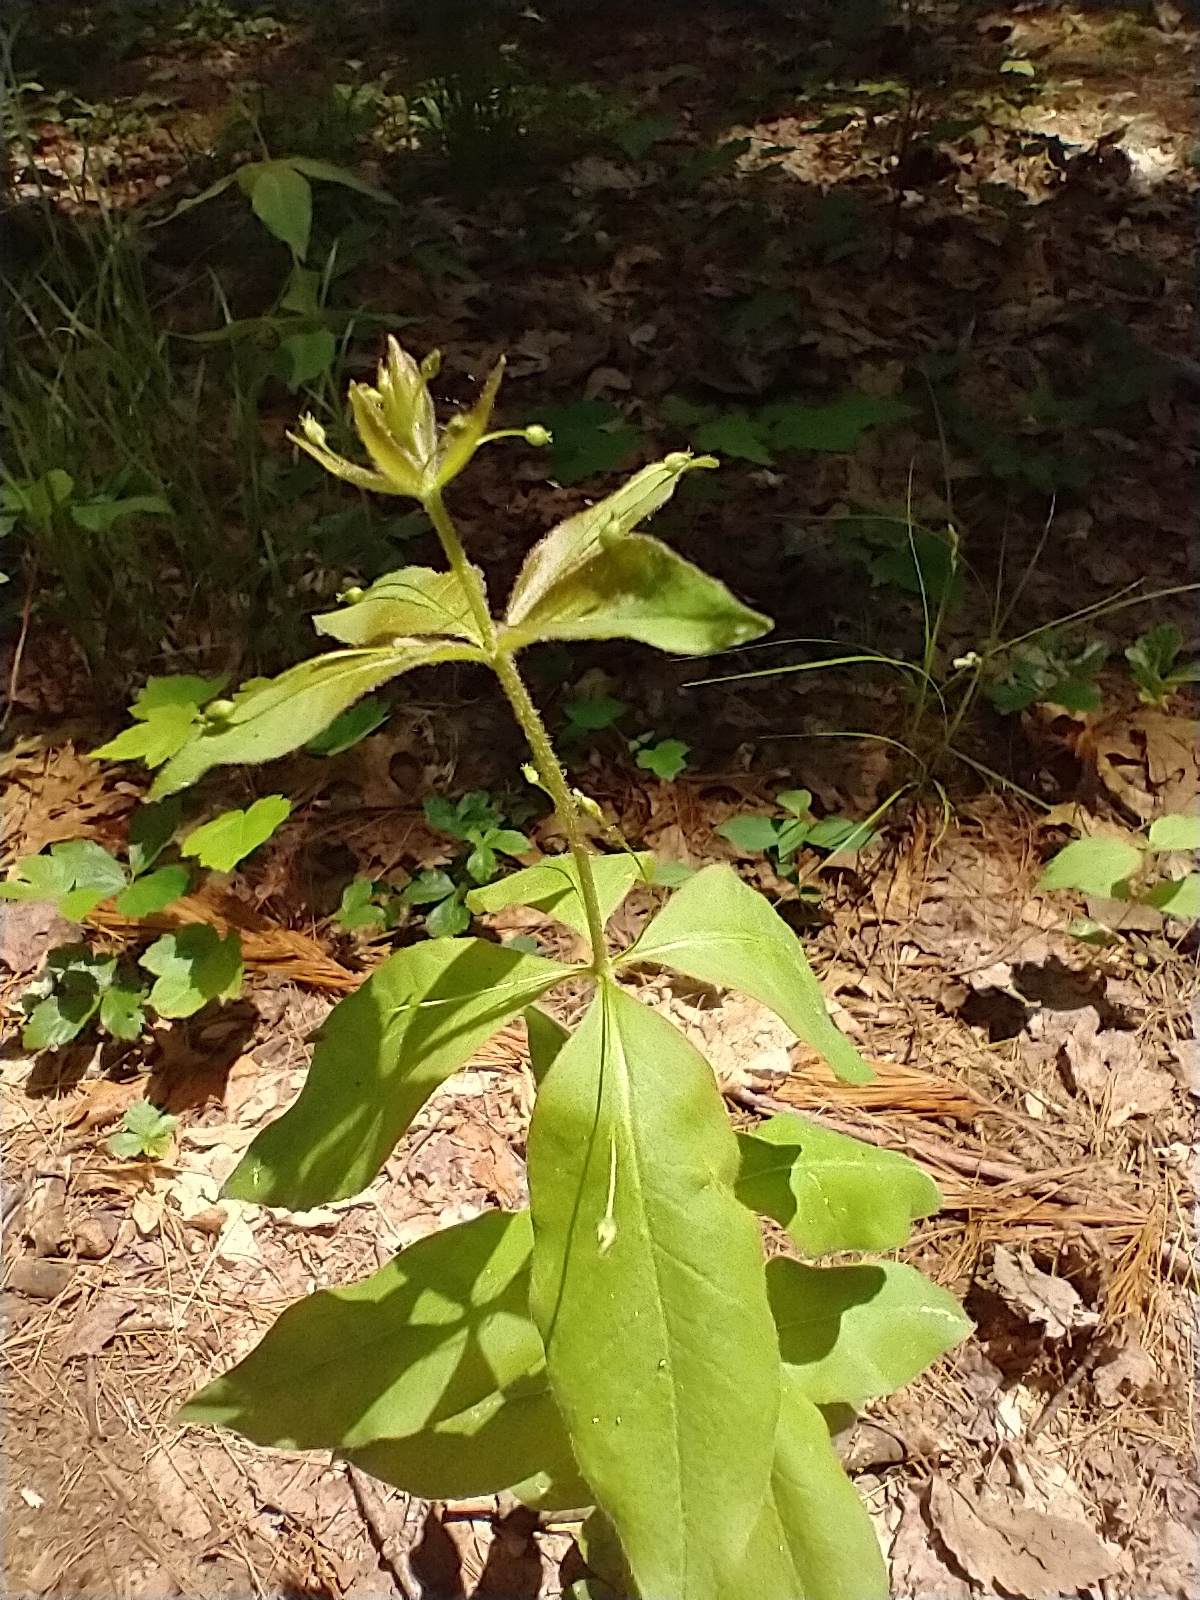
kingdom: Plantae
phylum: Tracheophyta
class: Magnoliopsida
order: Ericales
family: Primulaceae
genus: Lysimachia
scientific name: Lysimachia quadrifolia
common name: Whorled loosestrife
